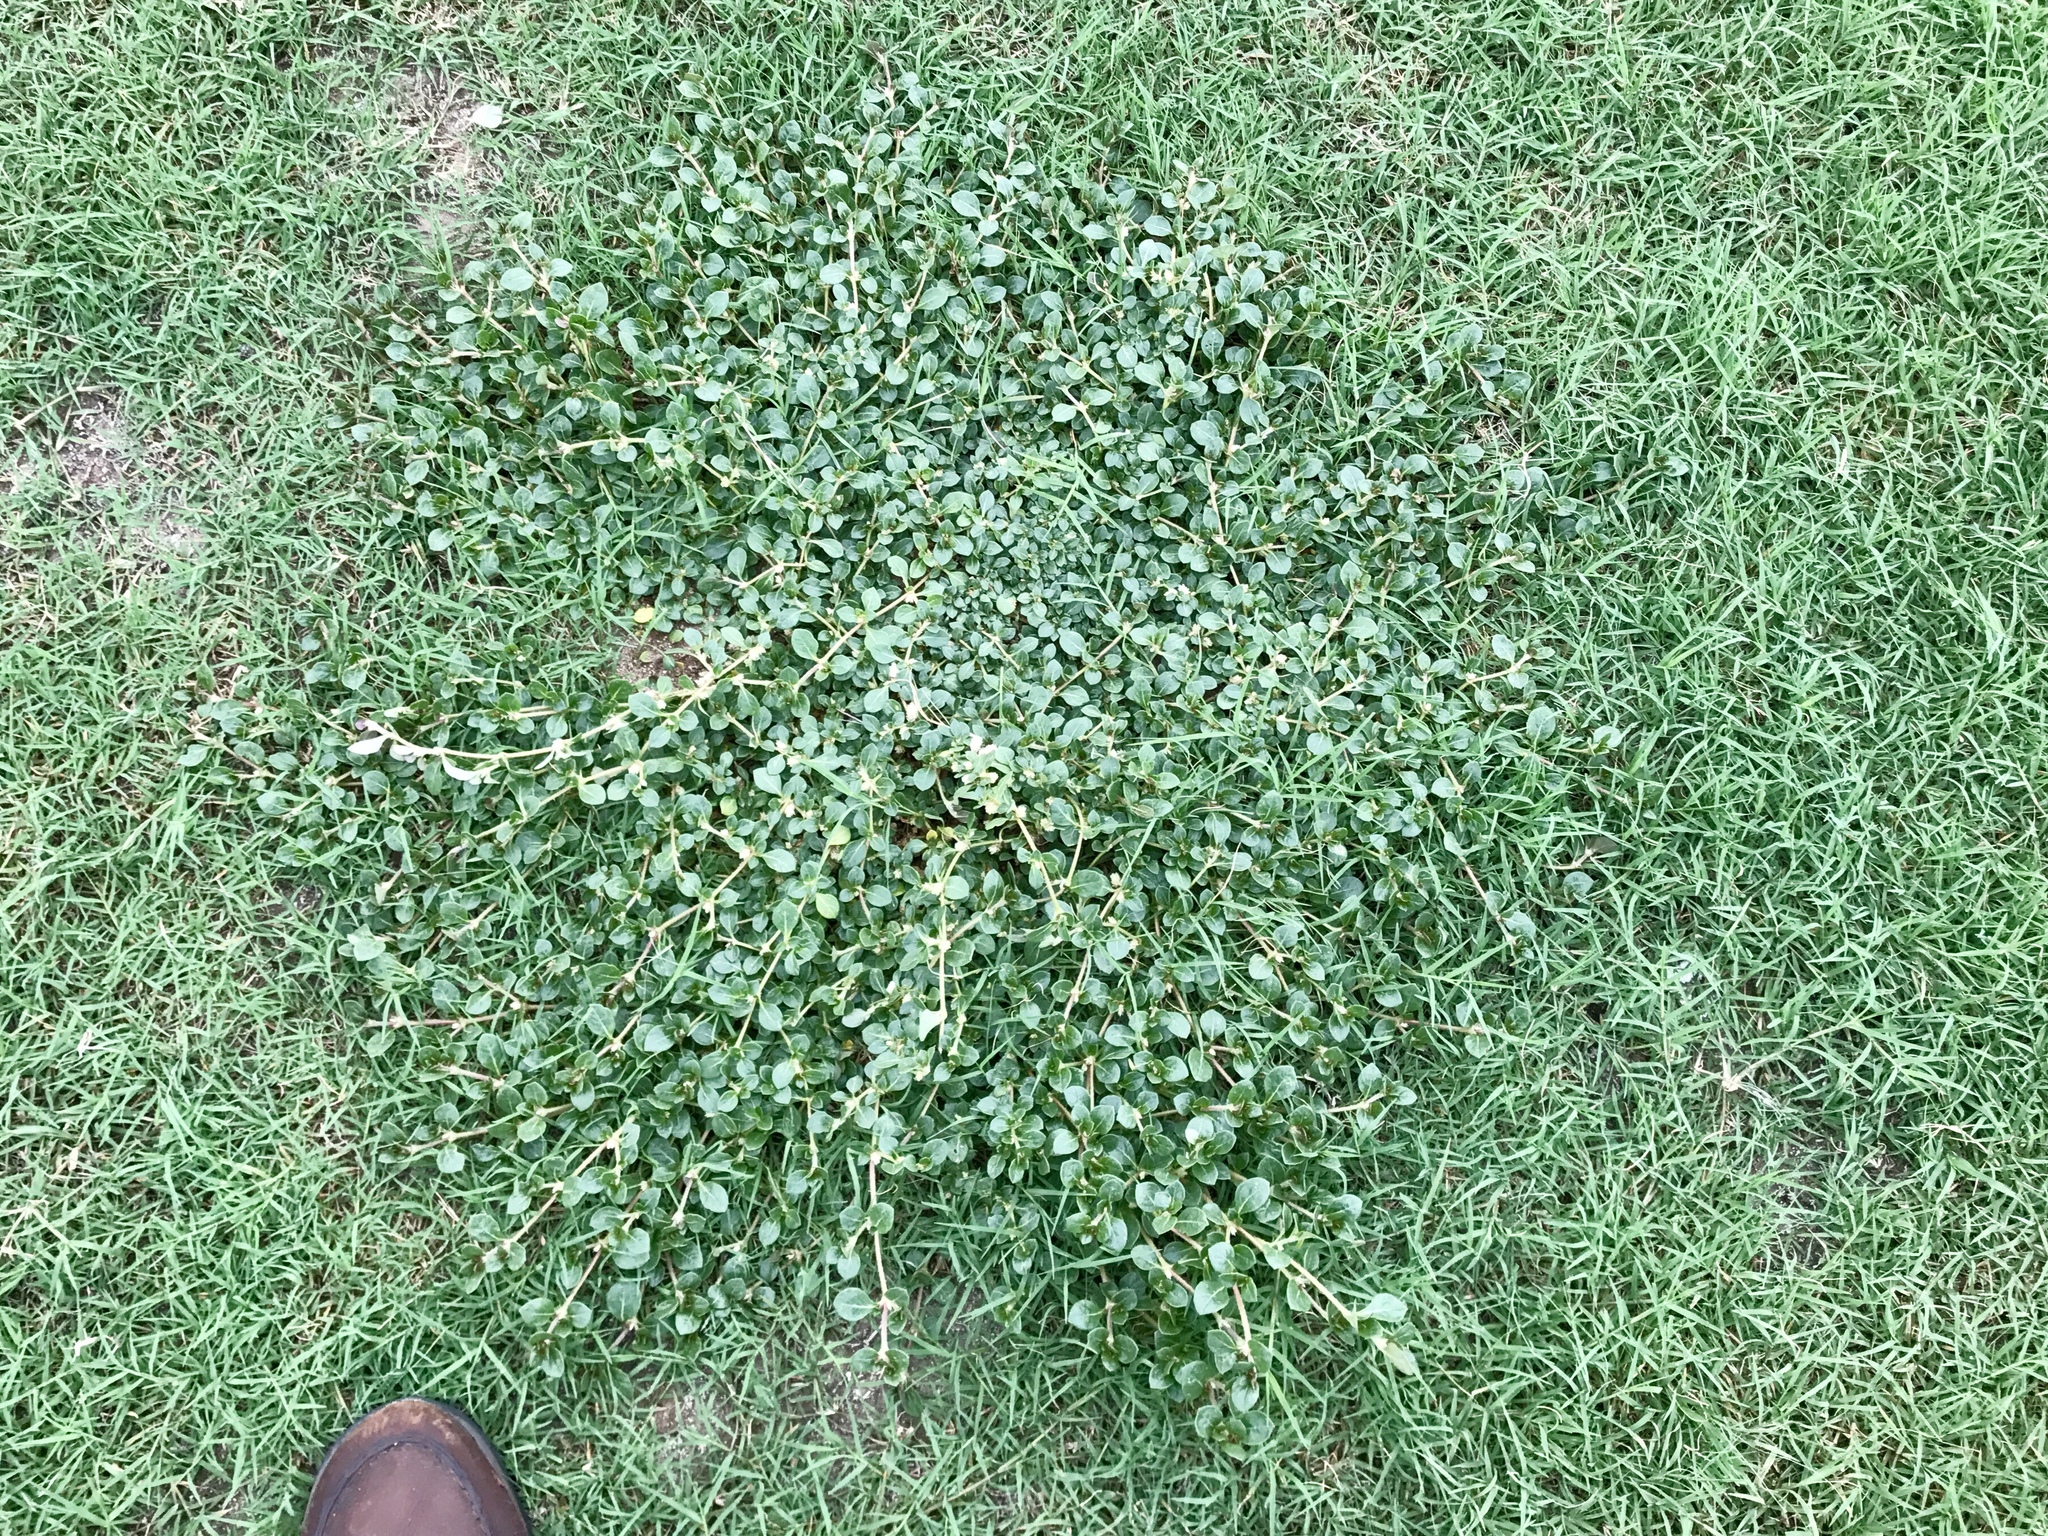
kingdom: Plantae
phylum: Tracheophyta
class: Magnoliopsida
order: Caryophyllales
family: Amaranthaceae
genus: Alternanthera
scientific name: Alternanthera caracasana
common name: Washerwoman
